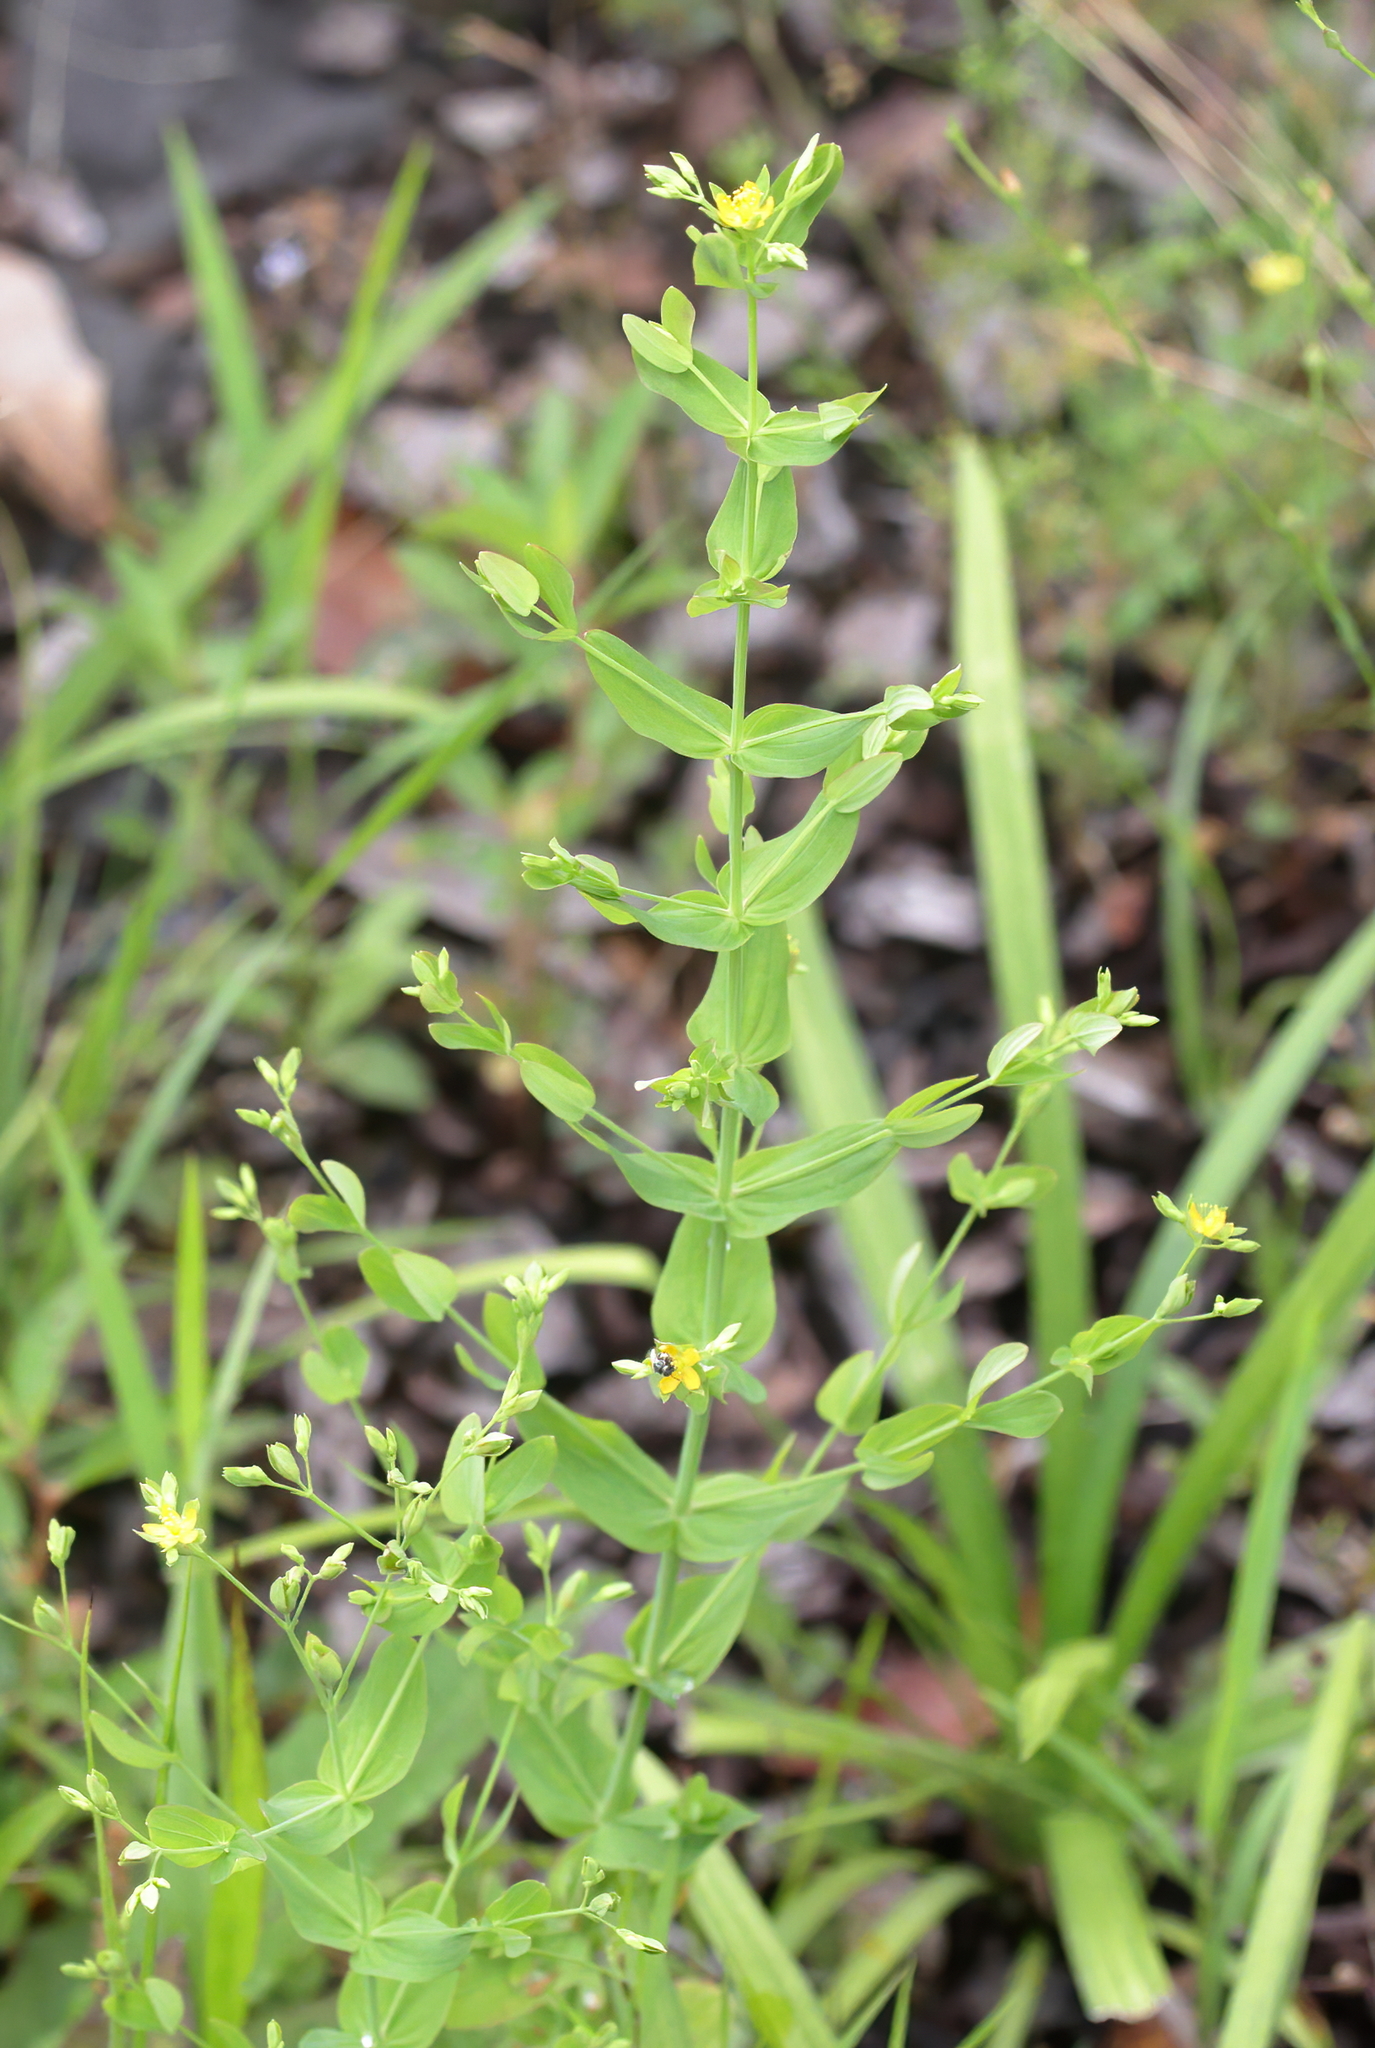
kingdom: Plantae
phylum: Tracheophyta
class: Magnoliopsida
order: Malpighiales
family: Hypericaceae
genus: Hypericum
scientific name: Hypericum mutilum
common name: Dwarf st. john's-wort
